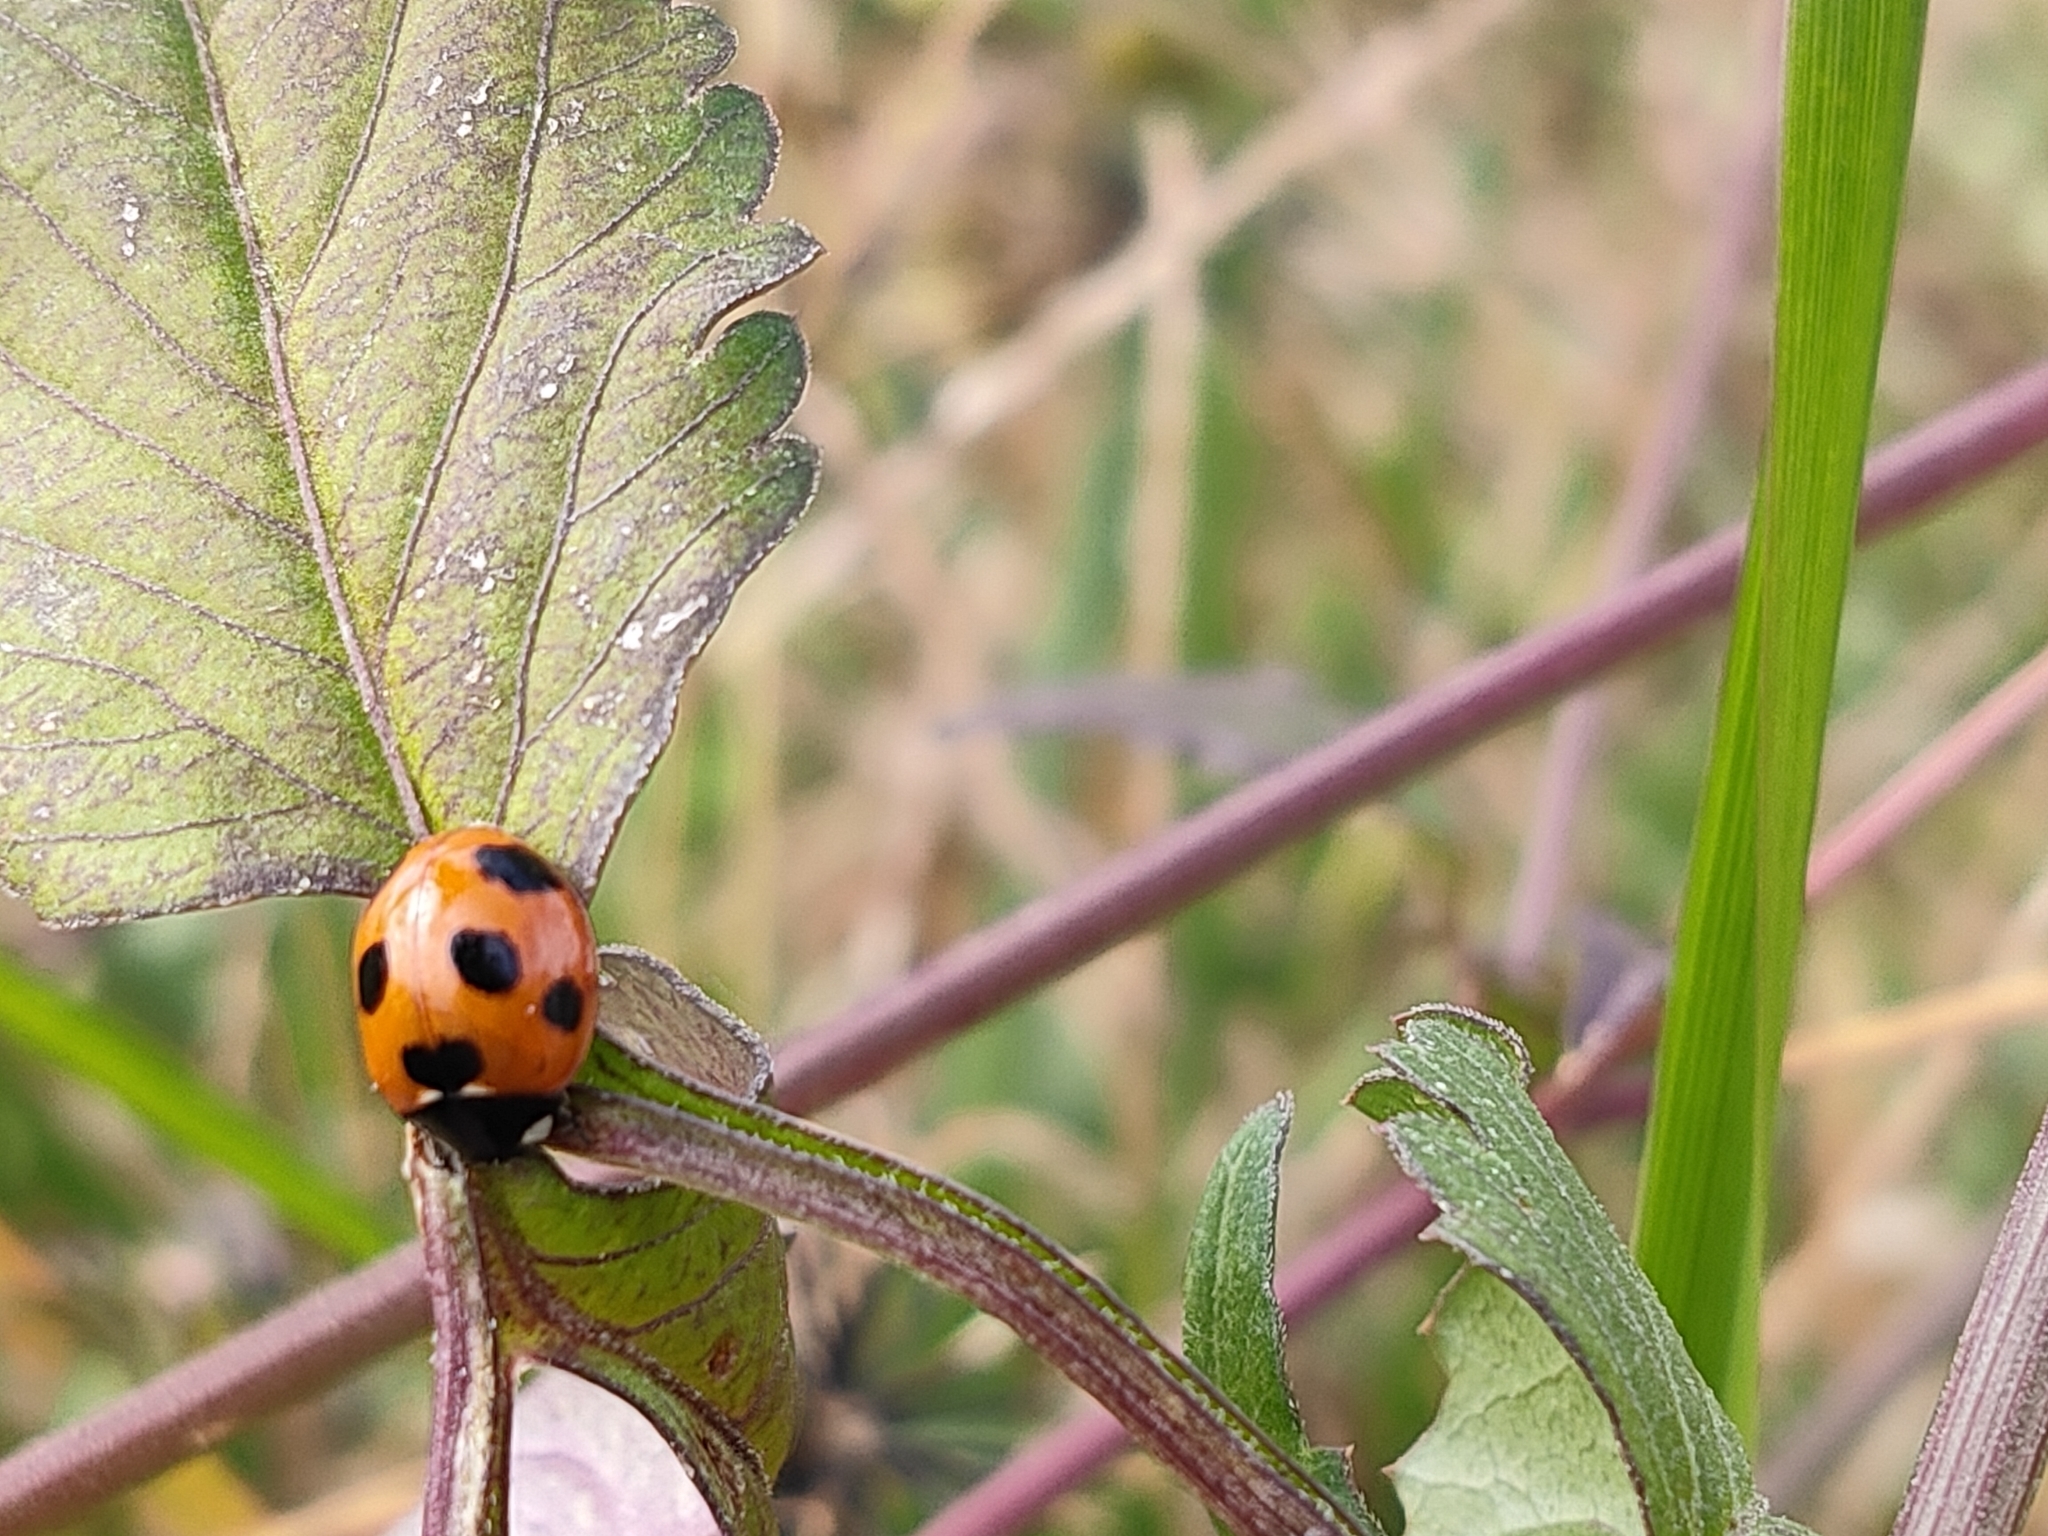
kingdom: Animalia
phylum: Arthropoda
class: Insecta
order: Coleoptera
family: Coccinellidae
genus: Coccinella
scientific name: Coccinella septempunctata
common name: Sevenspotted lady beetle
